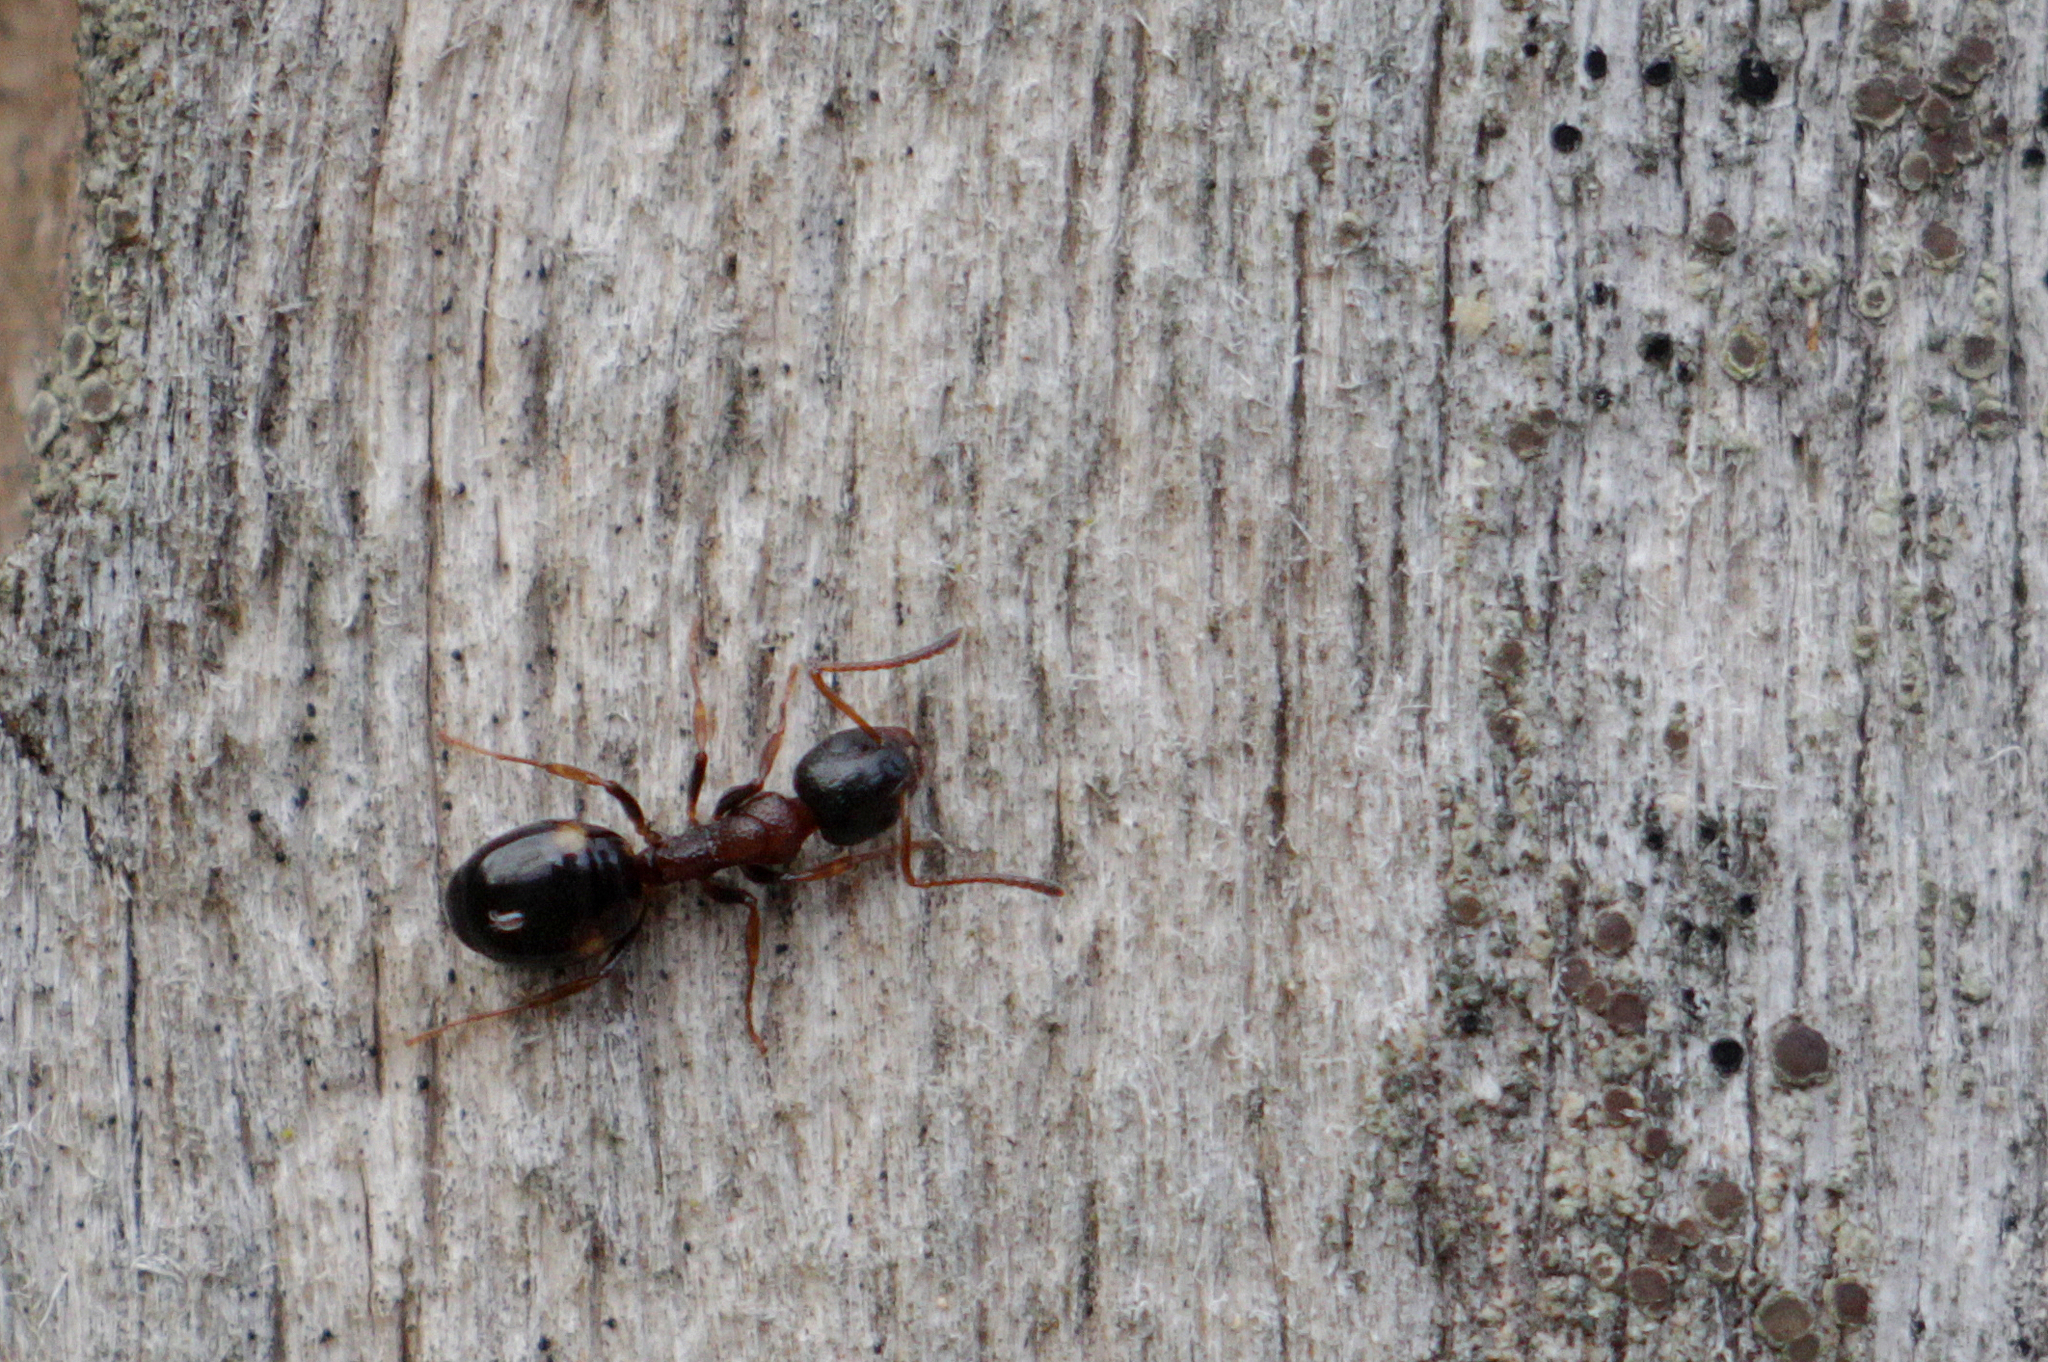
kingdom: Animalia
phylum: Arthropoda
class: Insecta
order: Hymenoptera
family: Formicidae
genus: Dolichoderus
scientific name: Dolichoderus quadripunctatus
